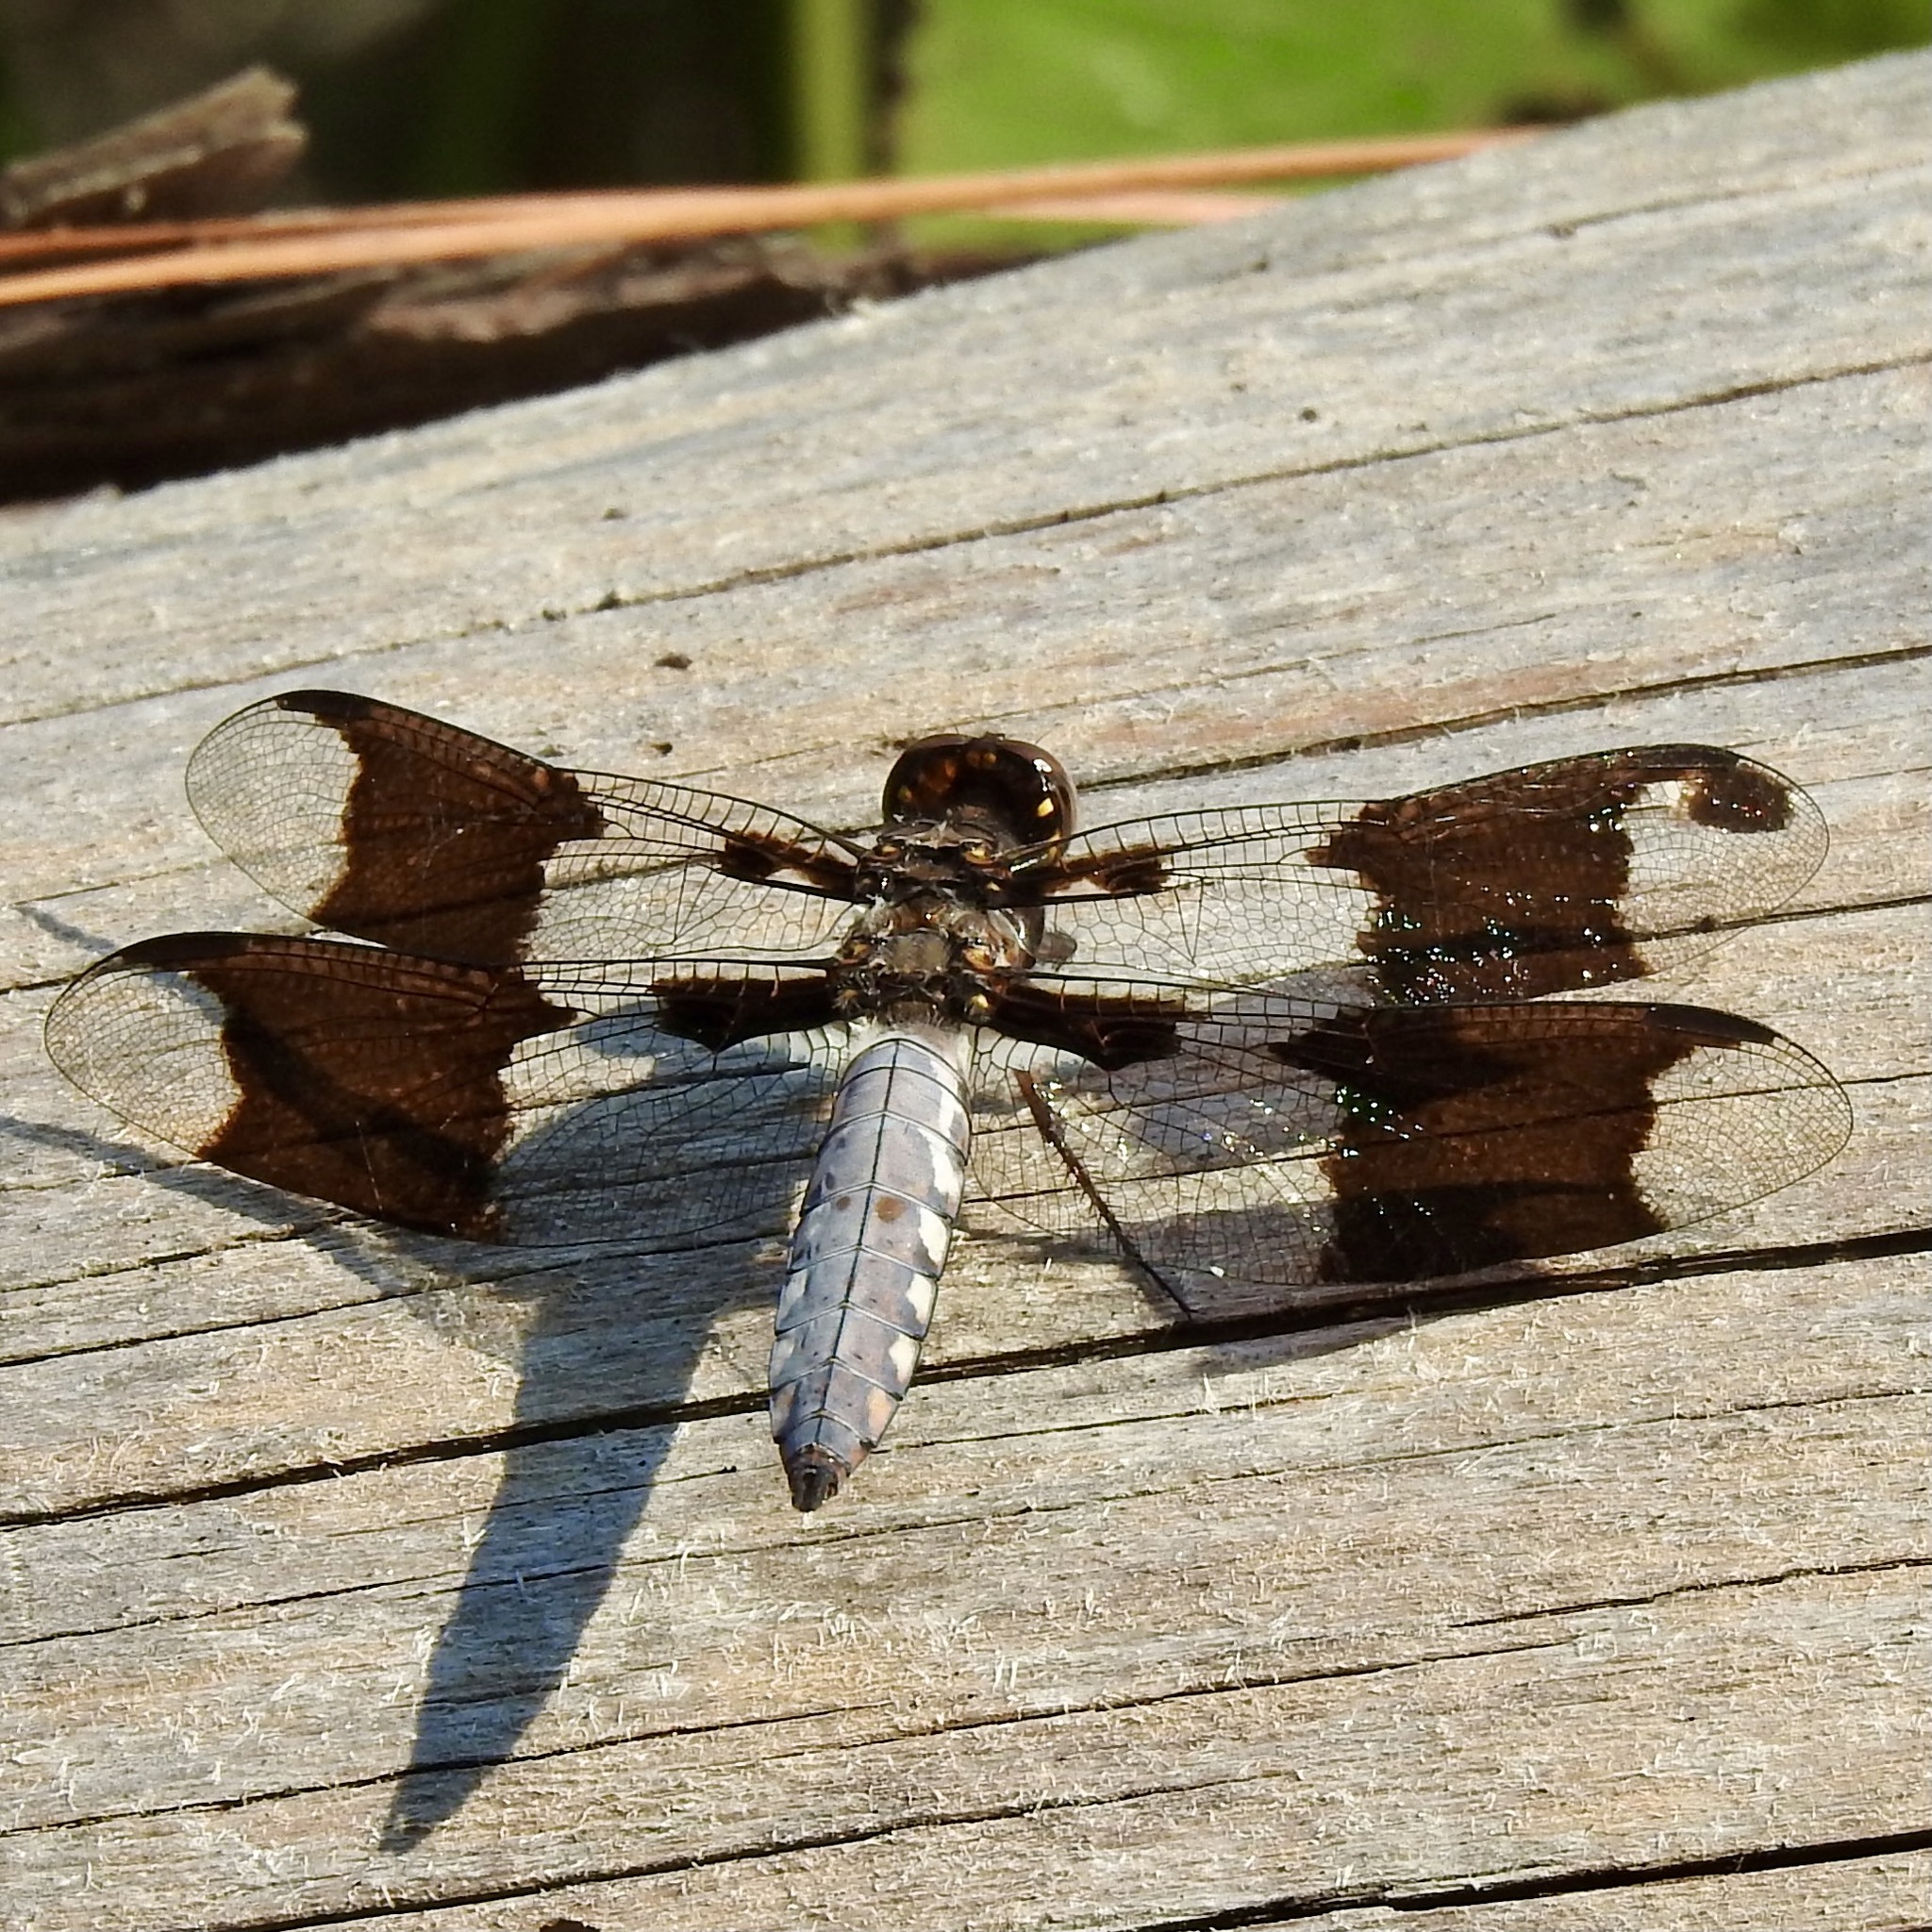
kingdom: Animalia
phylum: Arthropoda
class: Insecta
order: Odonata
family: Libellulidae
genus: Plathemis
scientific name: Plathemis lydia
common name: Common whitetail
